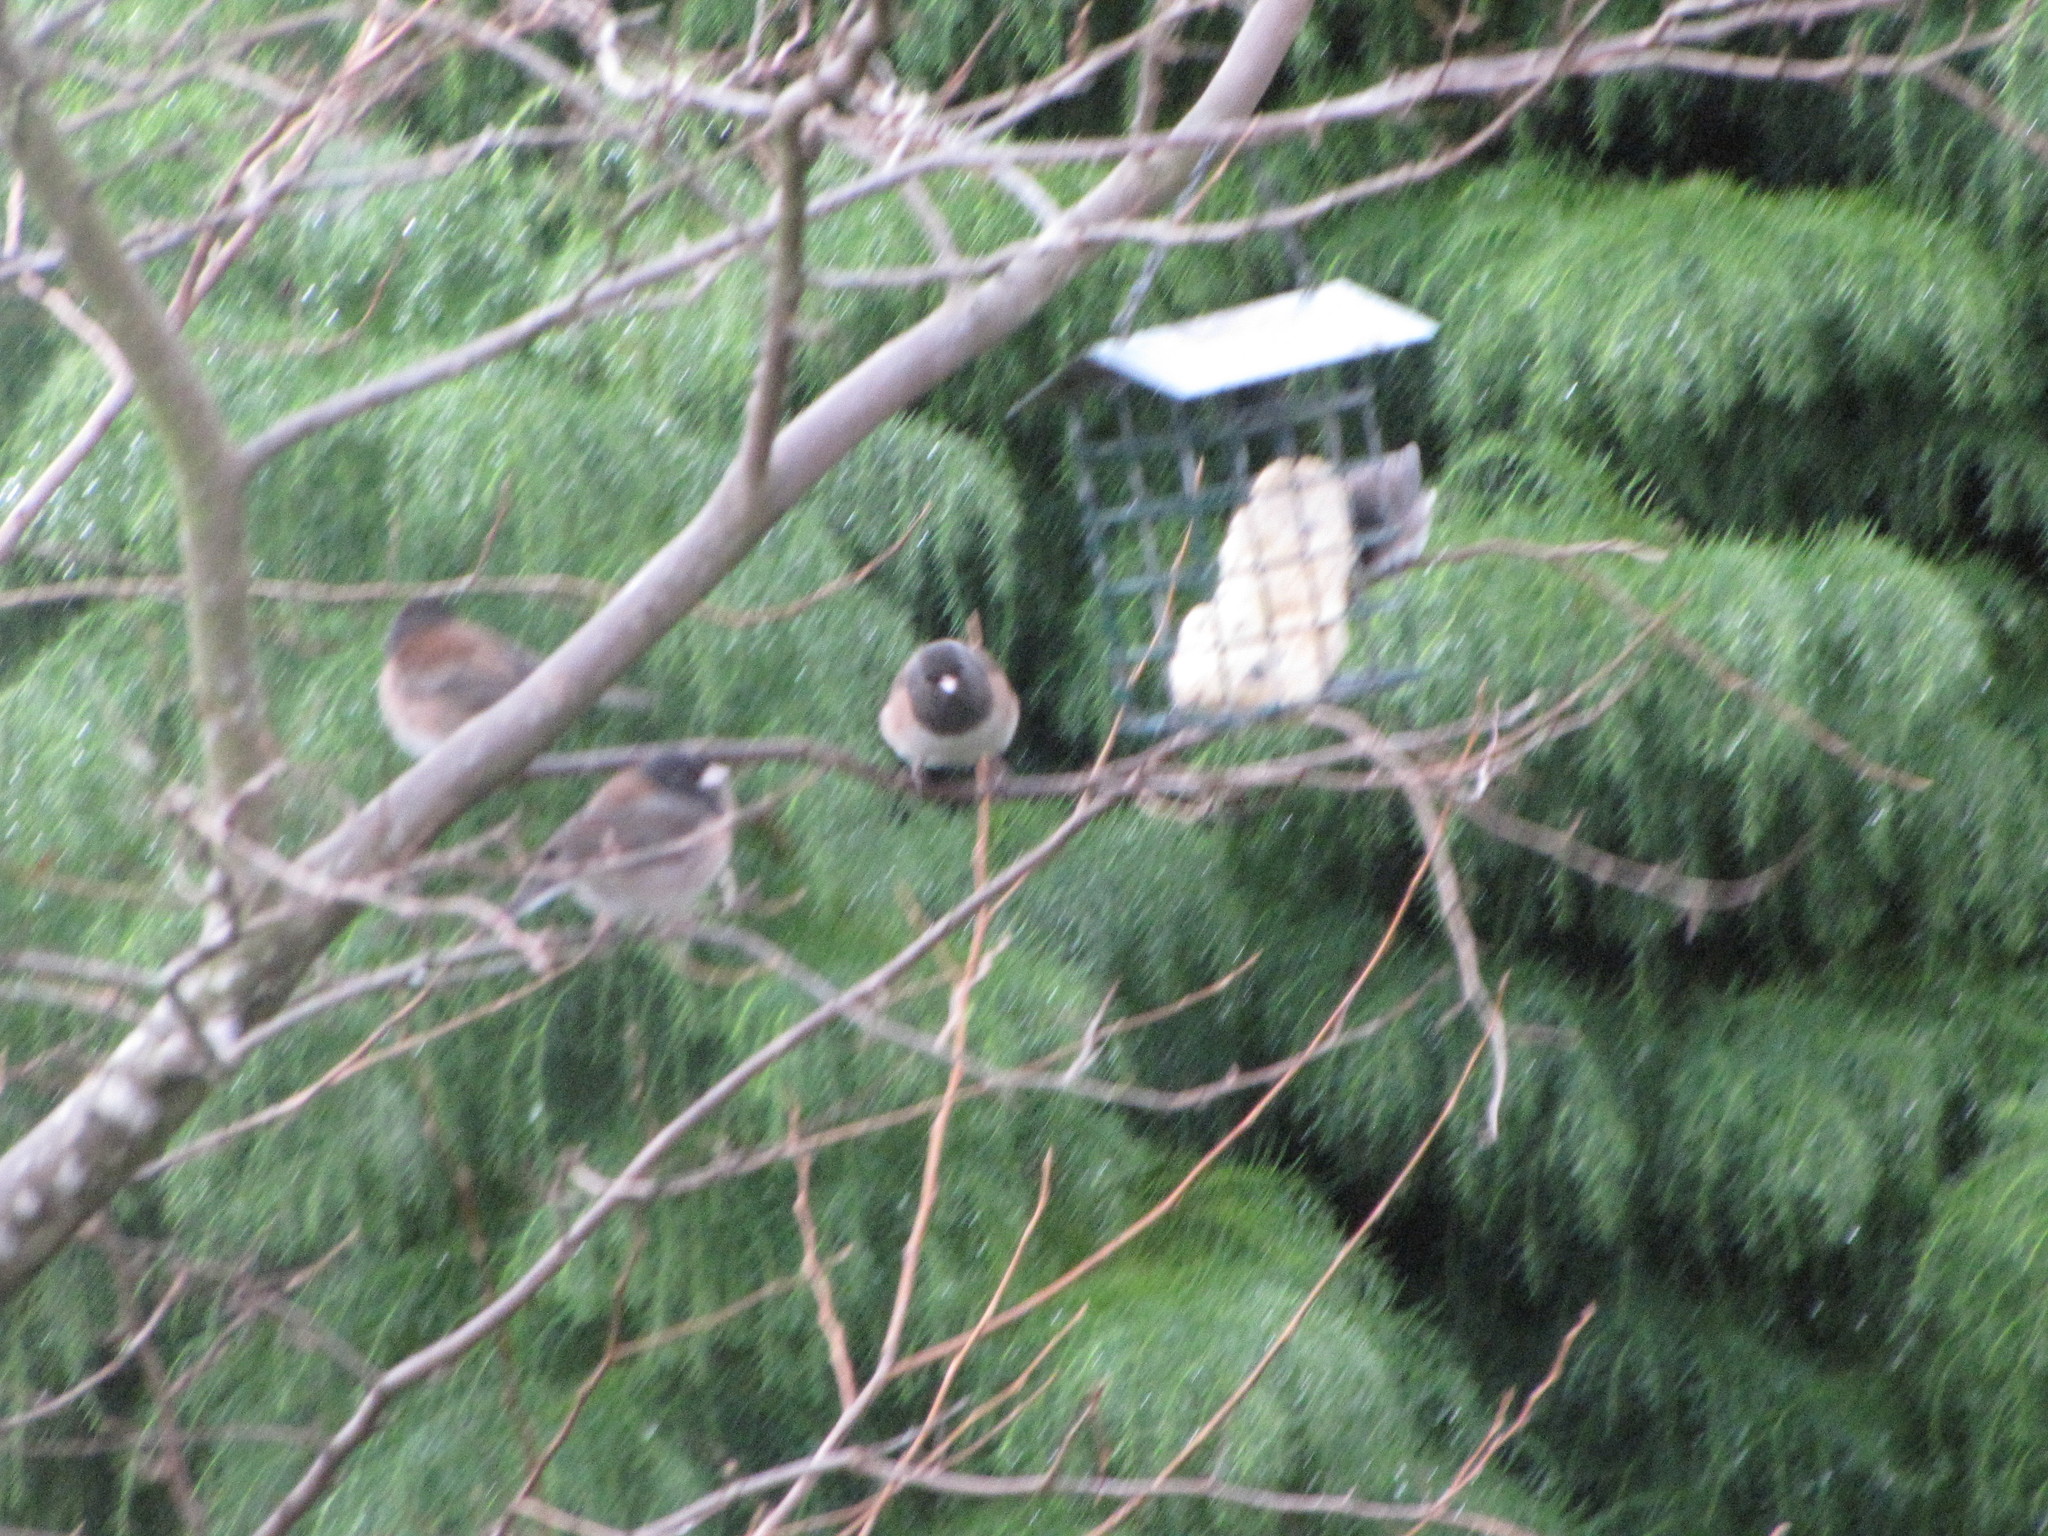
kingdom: Animalia
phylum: Chordata
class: Aves
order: Passeriformes
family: Passerellidae
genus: Junco
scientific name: Junco hyemalis
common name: Dark-eyed junco
